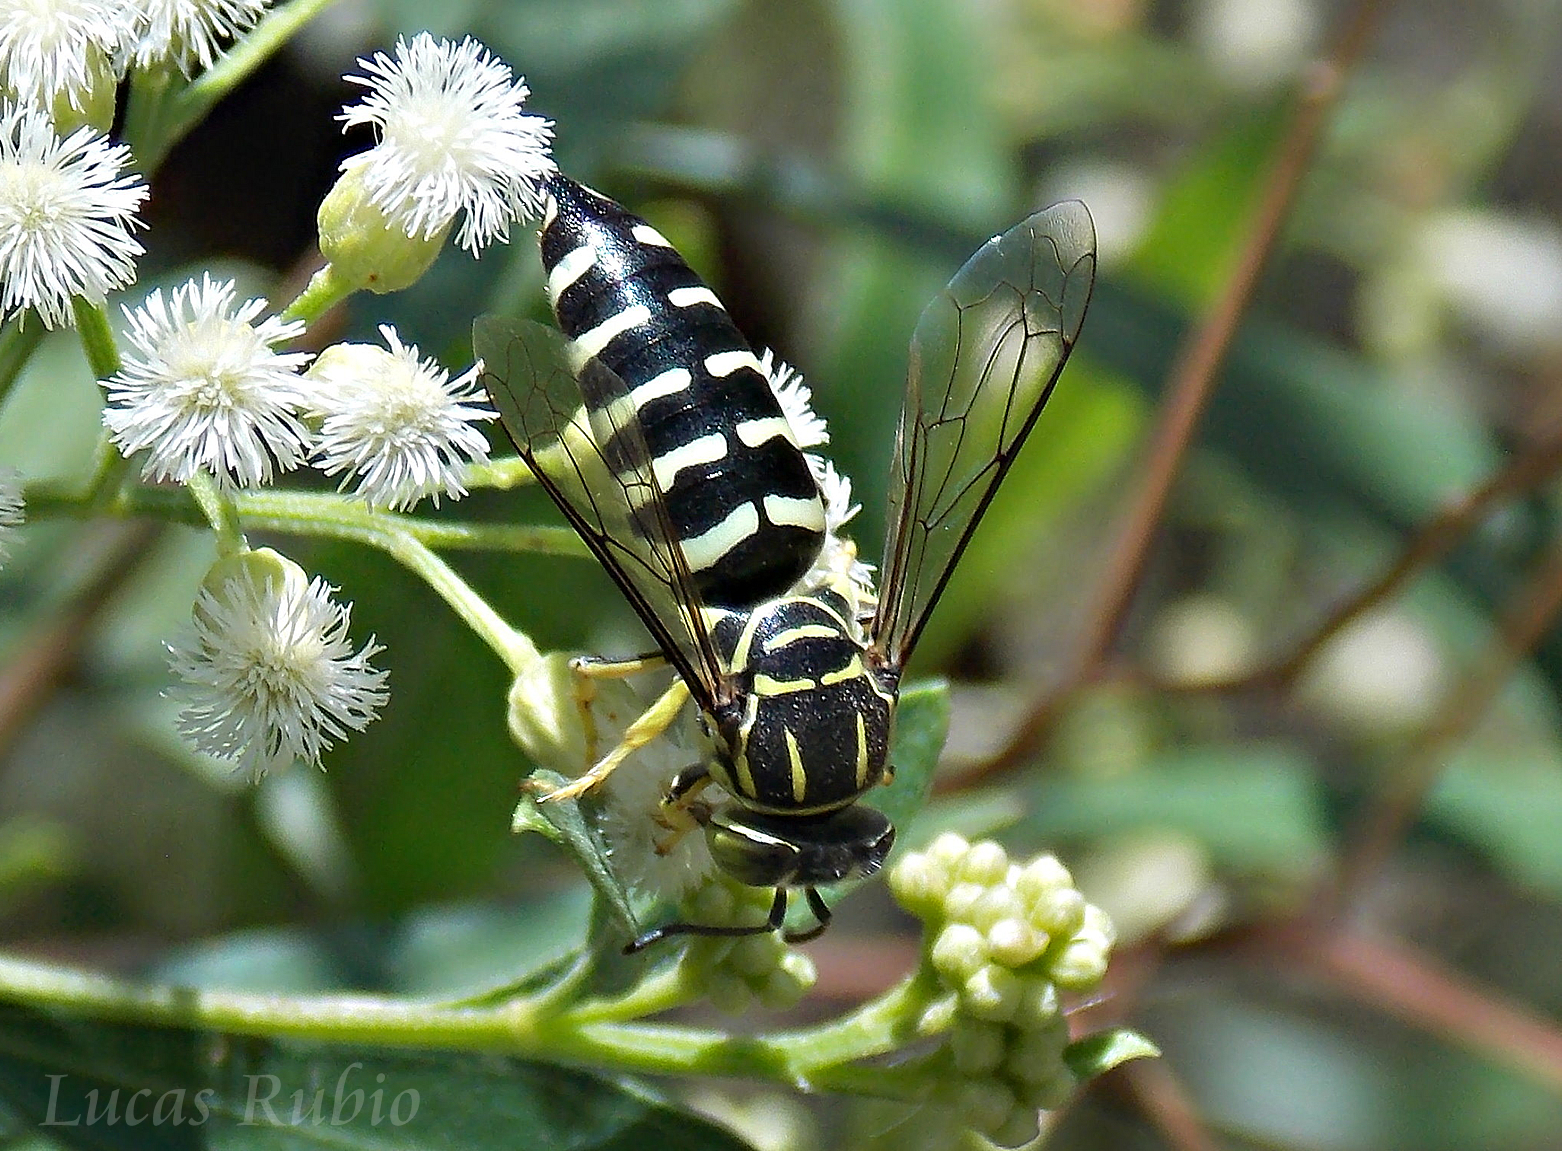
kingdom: Animalia
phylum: Arthropoda
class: Insecta
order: Hymenoptera
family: Crabronidae
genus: Bicyrtes
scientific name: Bicyrtes variegatus
